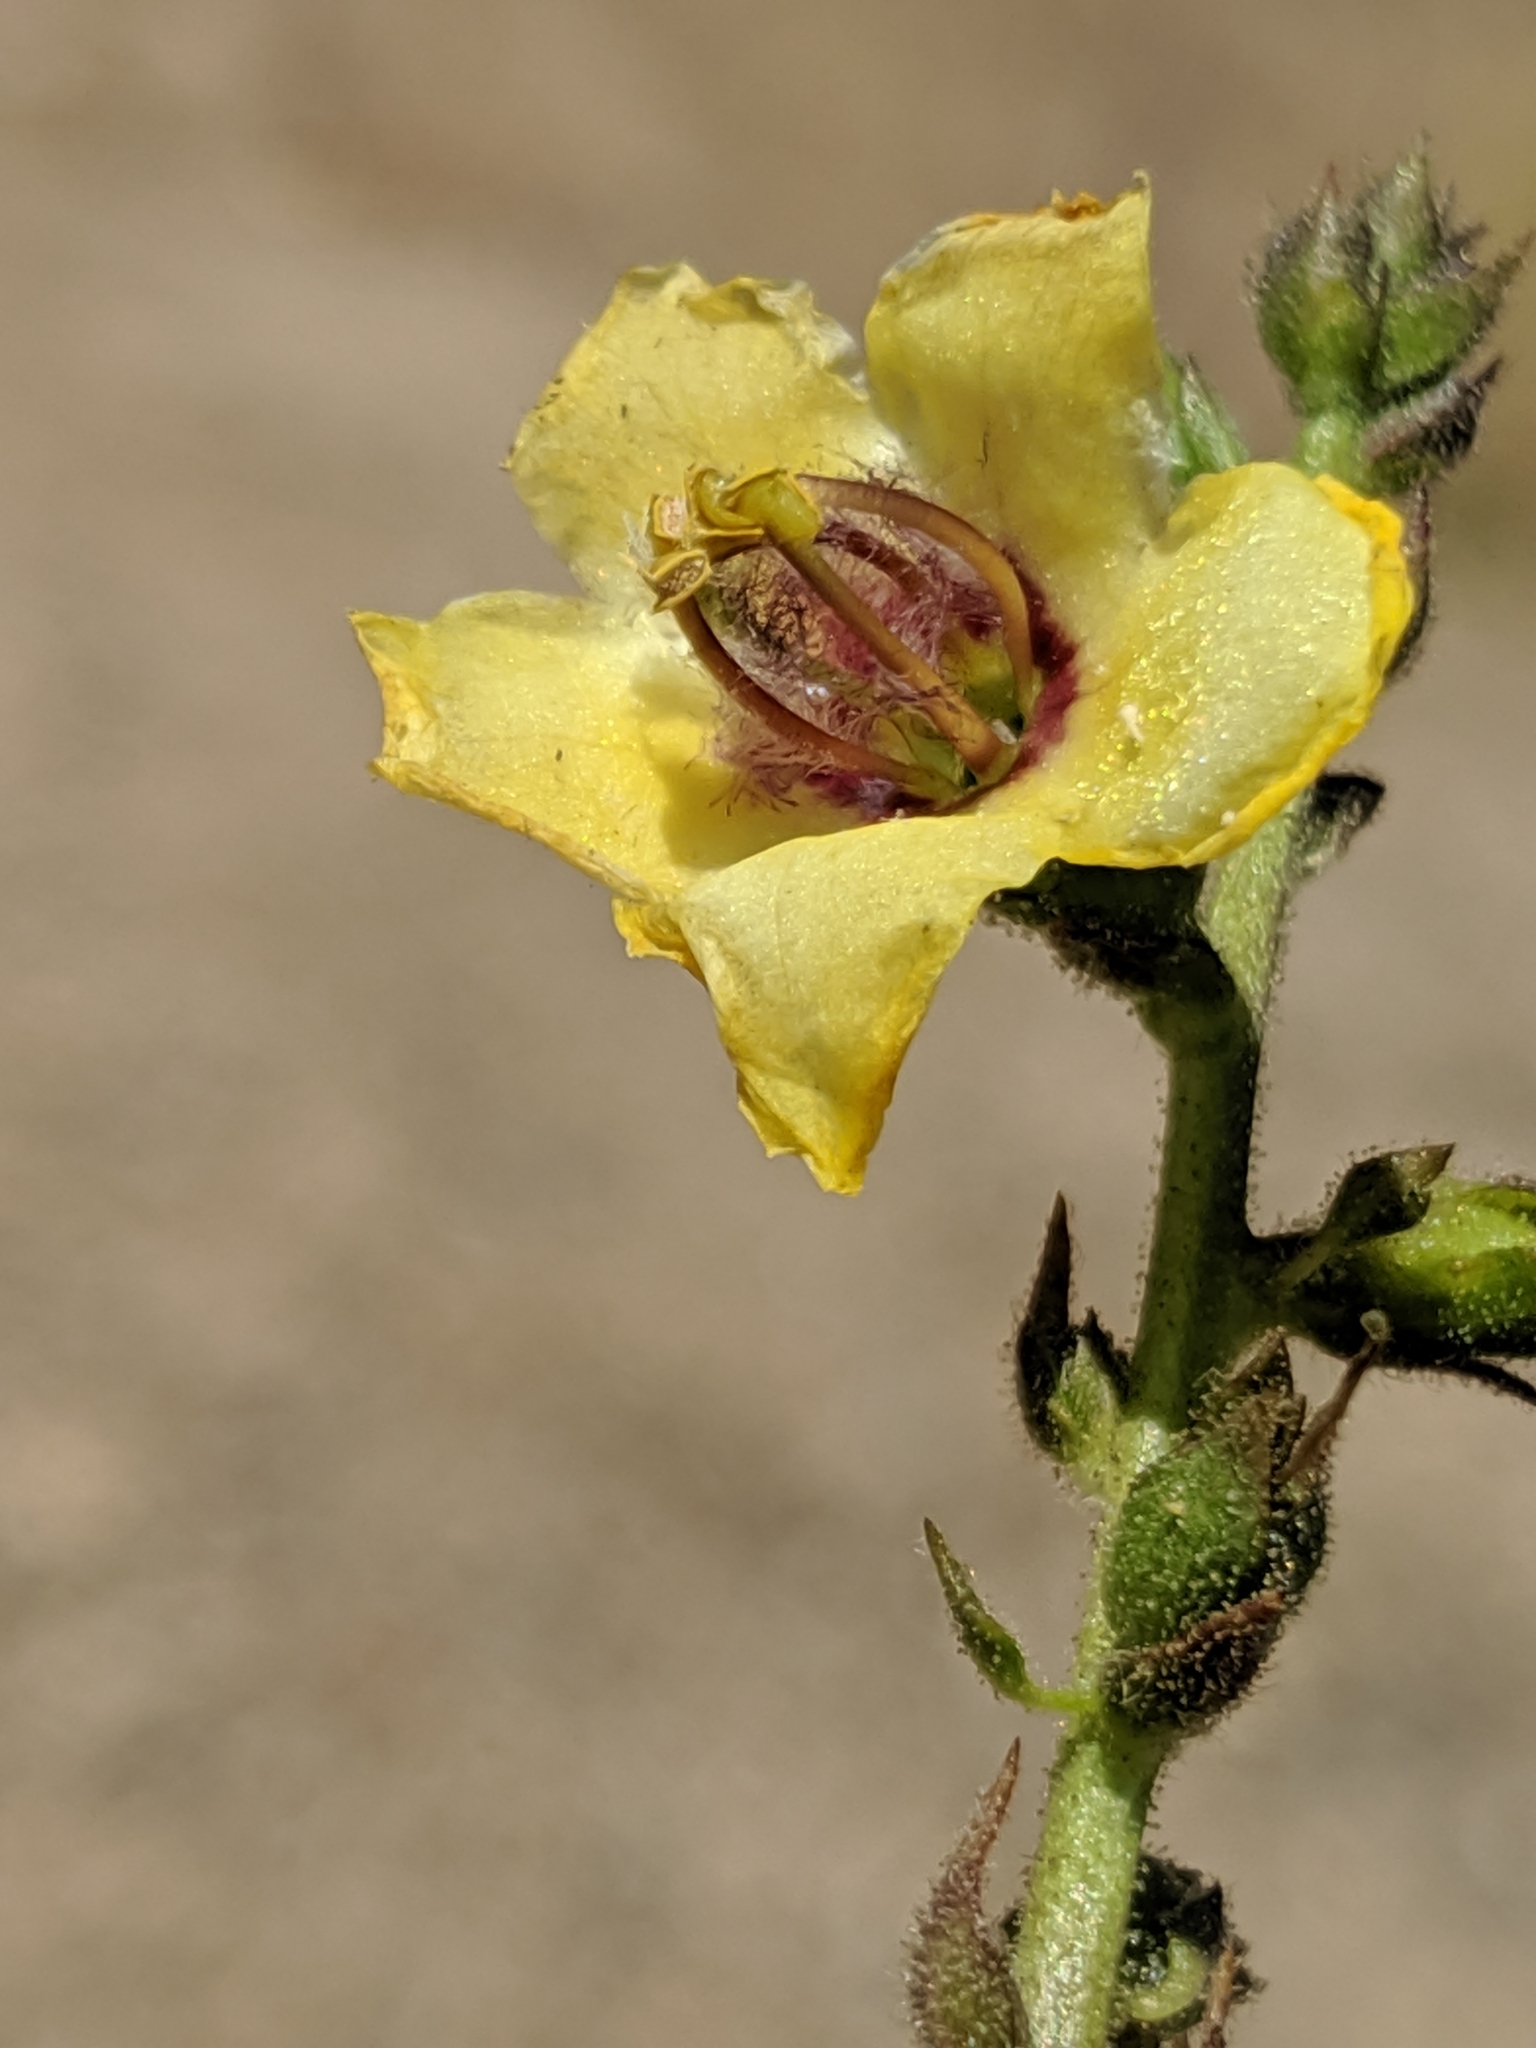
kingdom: Plantae
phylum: Tracheophyta
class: Magnoliopsida
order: Lamiales
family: Scrophulariaceae
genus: Verbascum
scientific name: Verbascum virgatum
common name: Twiggy mullein
